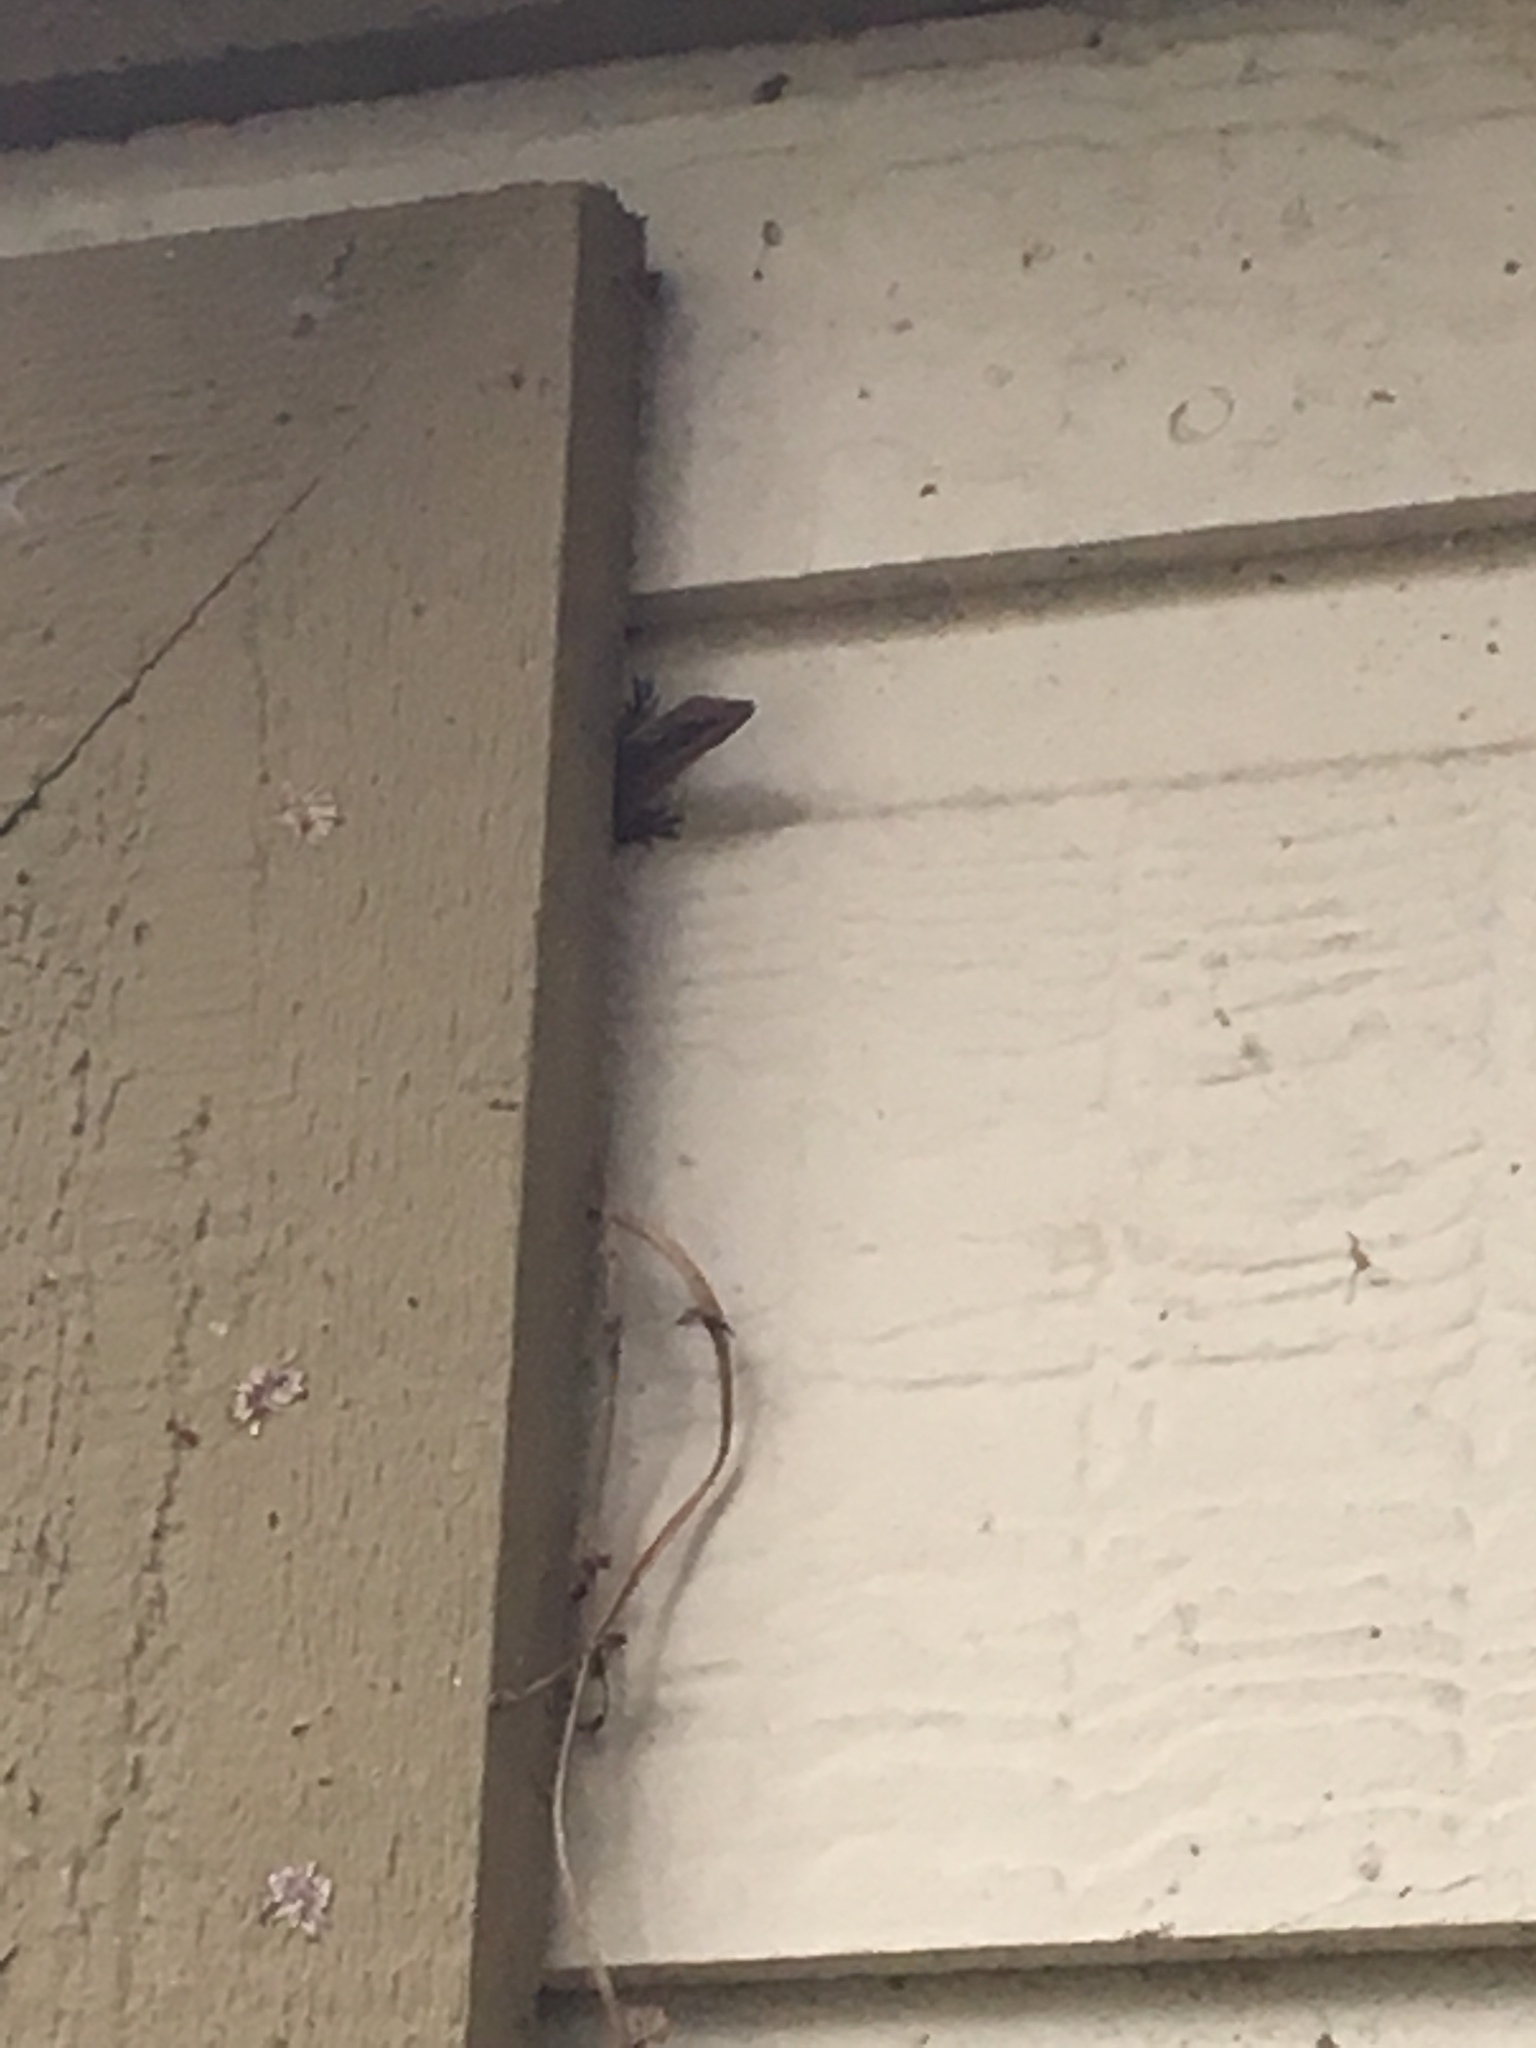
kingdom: Animalia
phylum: Chordata
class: Squamata
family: Dactyloidae
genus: Anolis
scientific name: Anolis carolinensis
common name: Green anole
